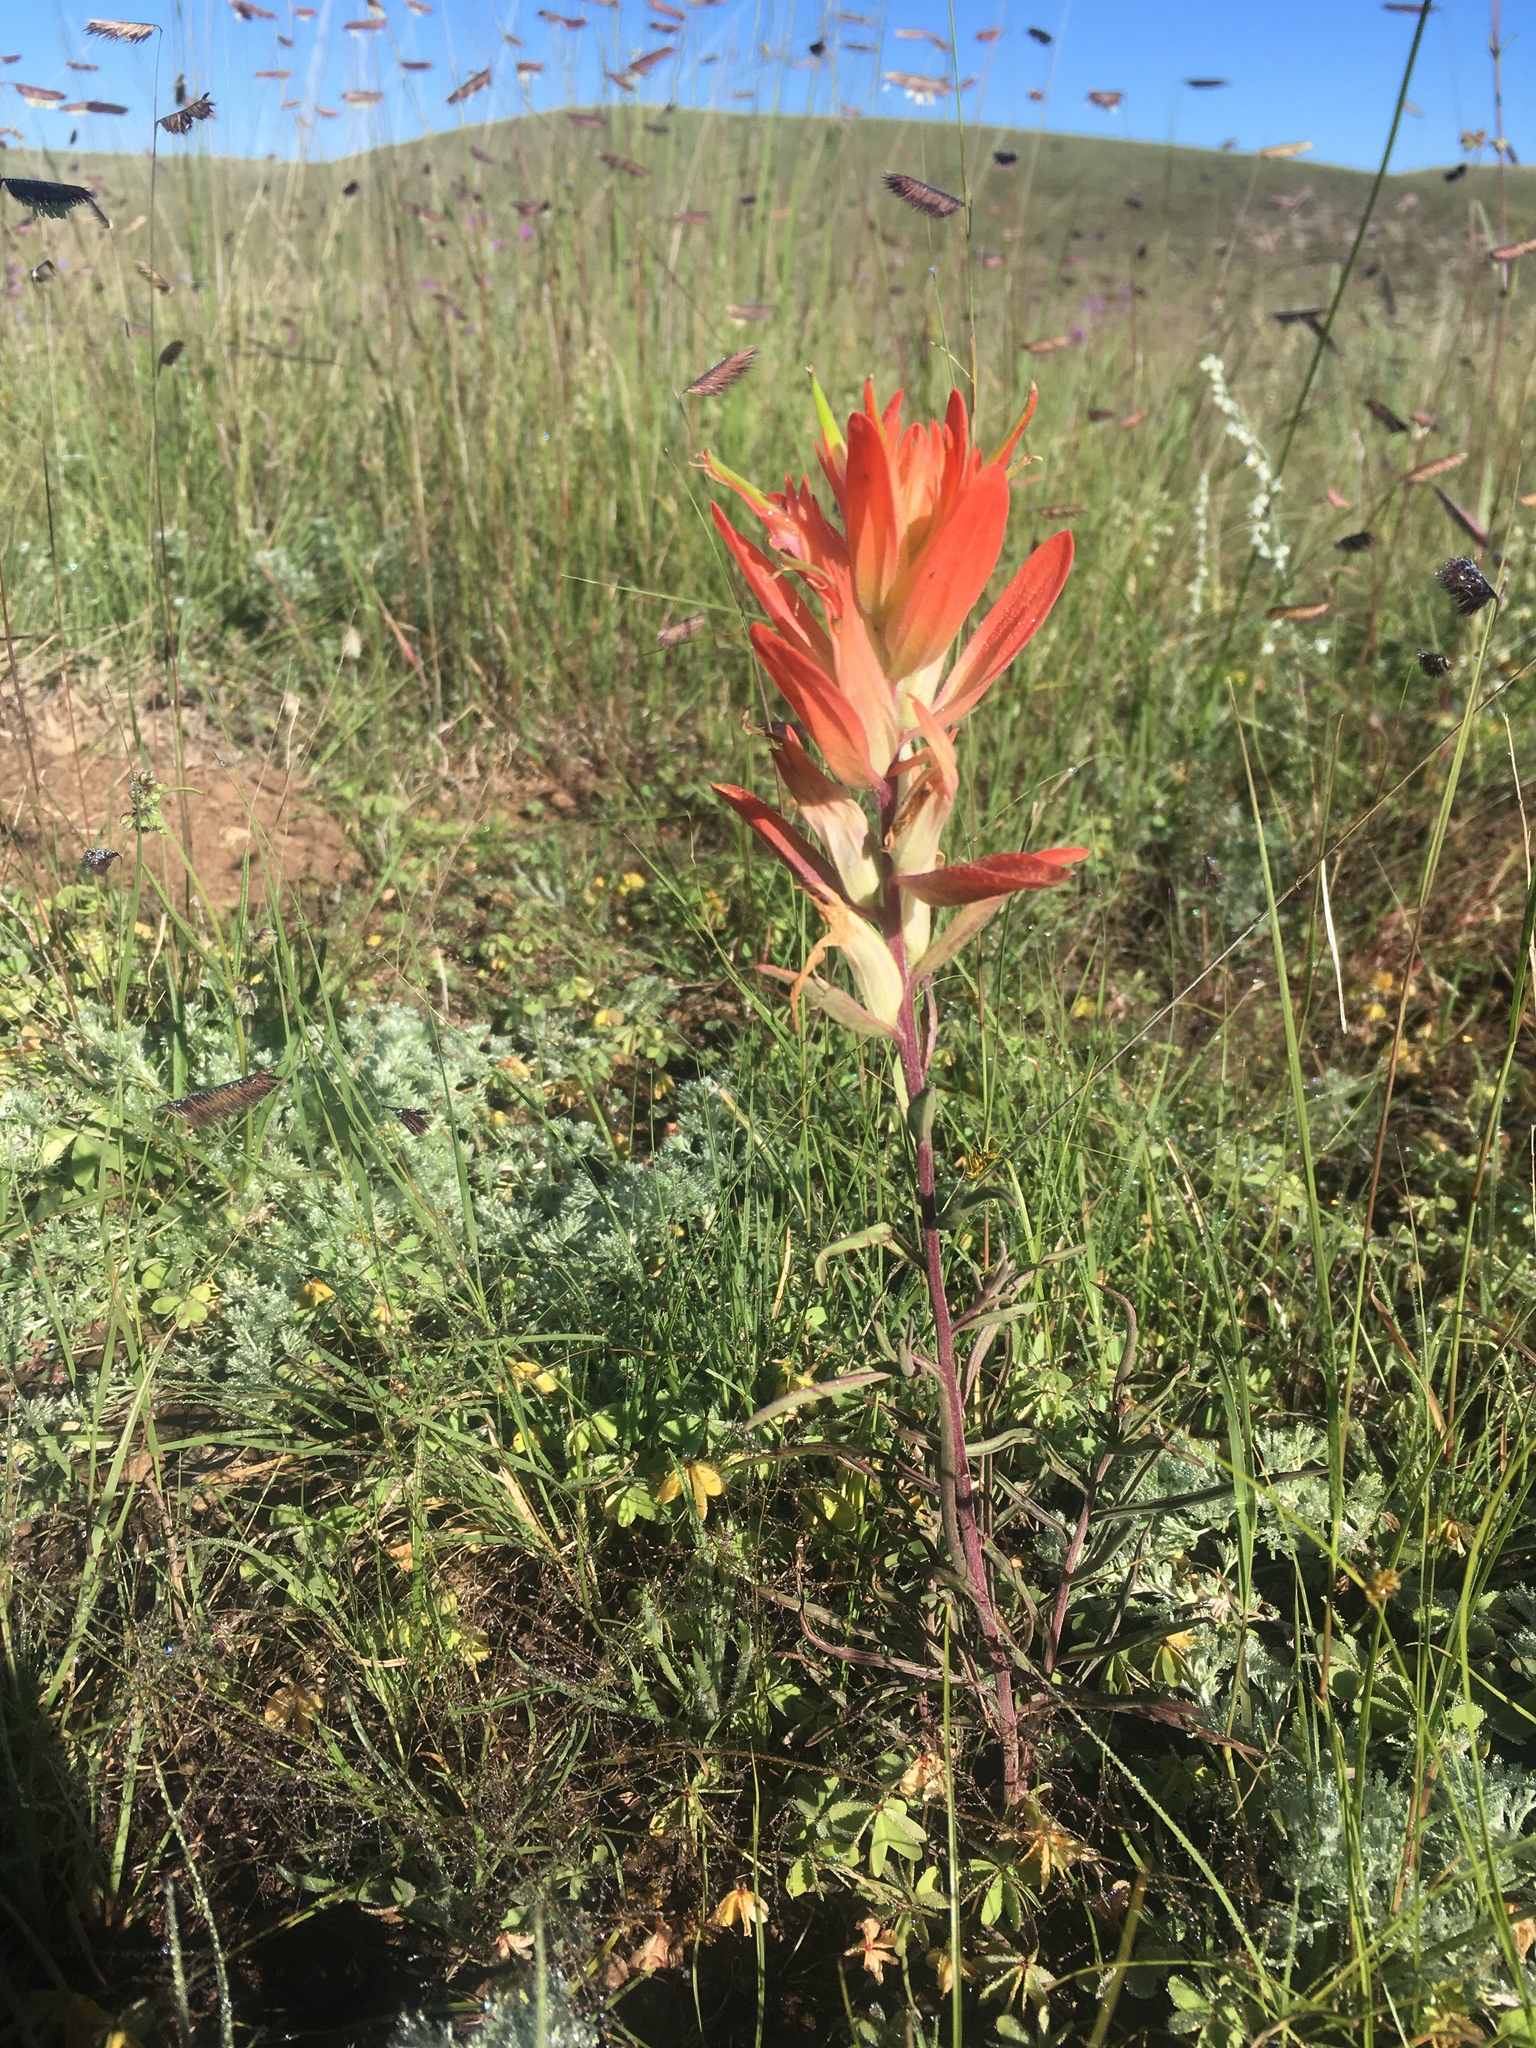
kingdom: Plantae
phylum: Tracheophyta
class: Magnoliopsida
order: Lamiales
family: Orobanchaceae
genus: Castilleja
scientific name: Castilleja integra
